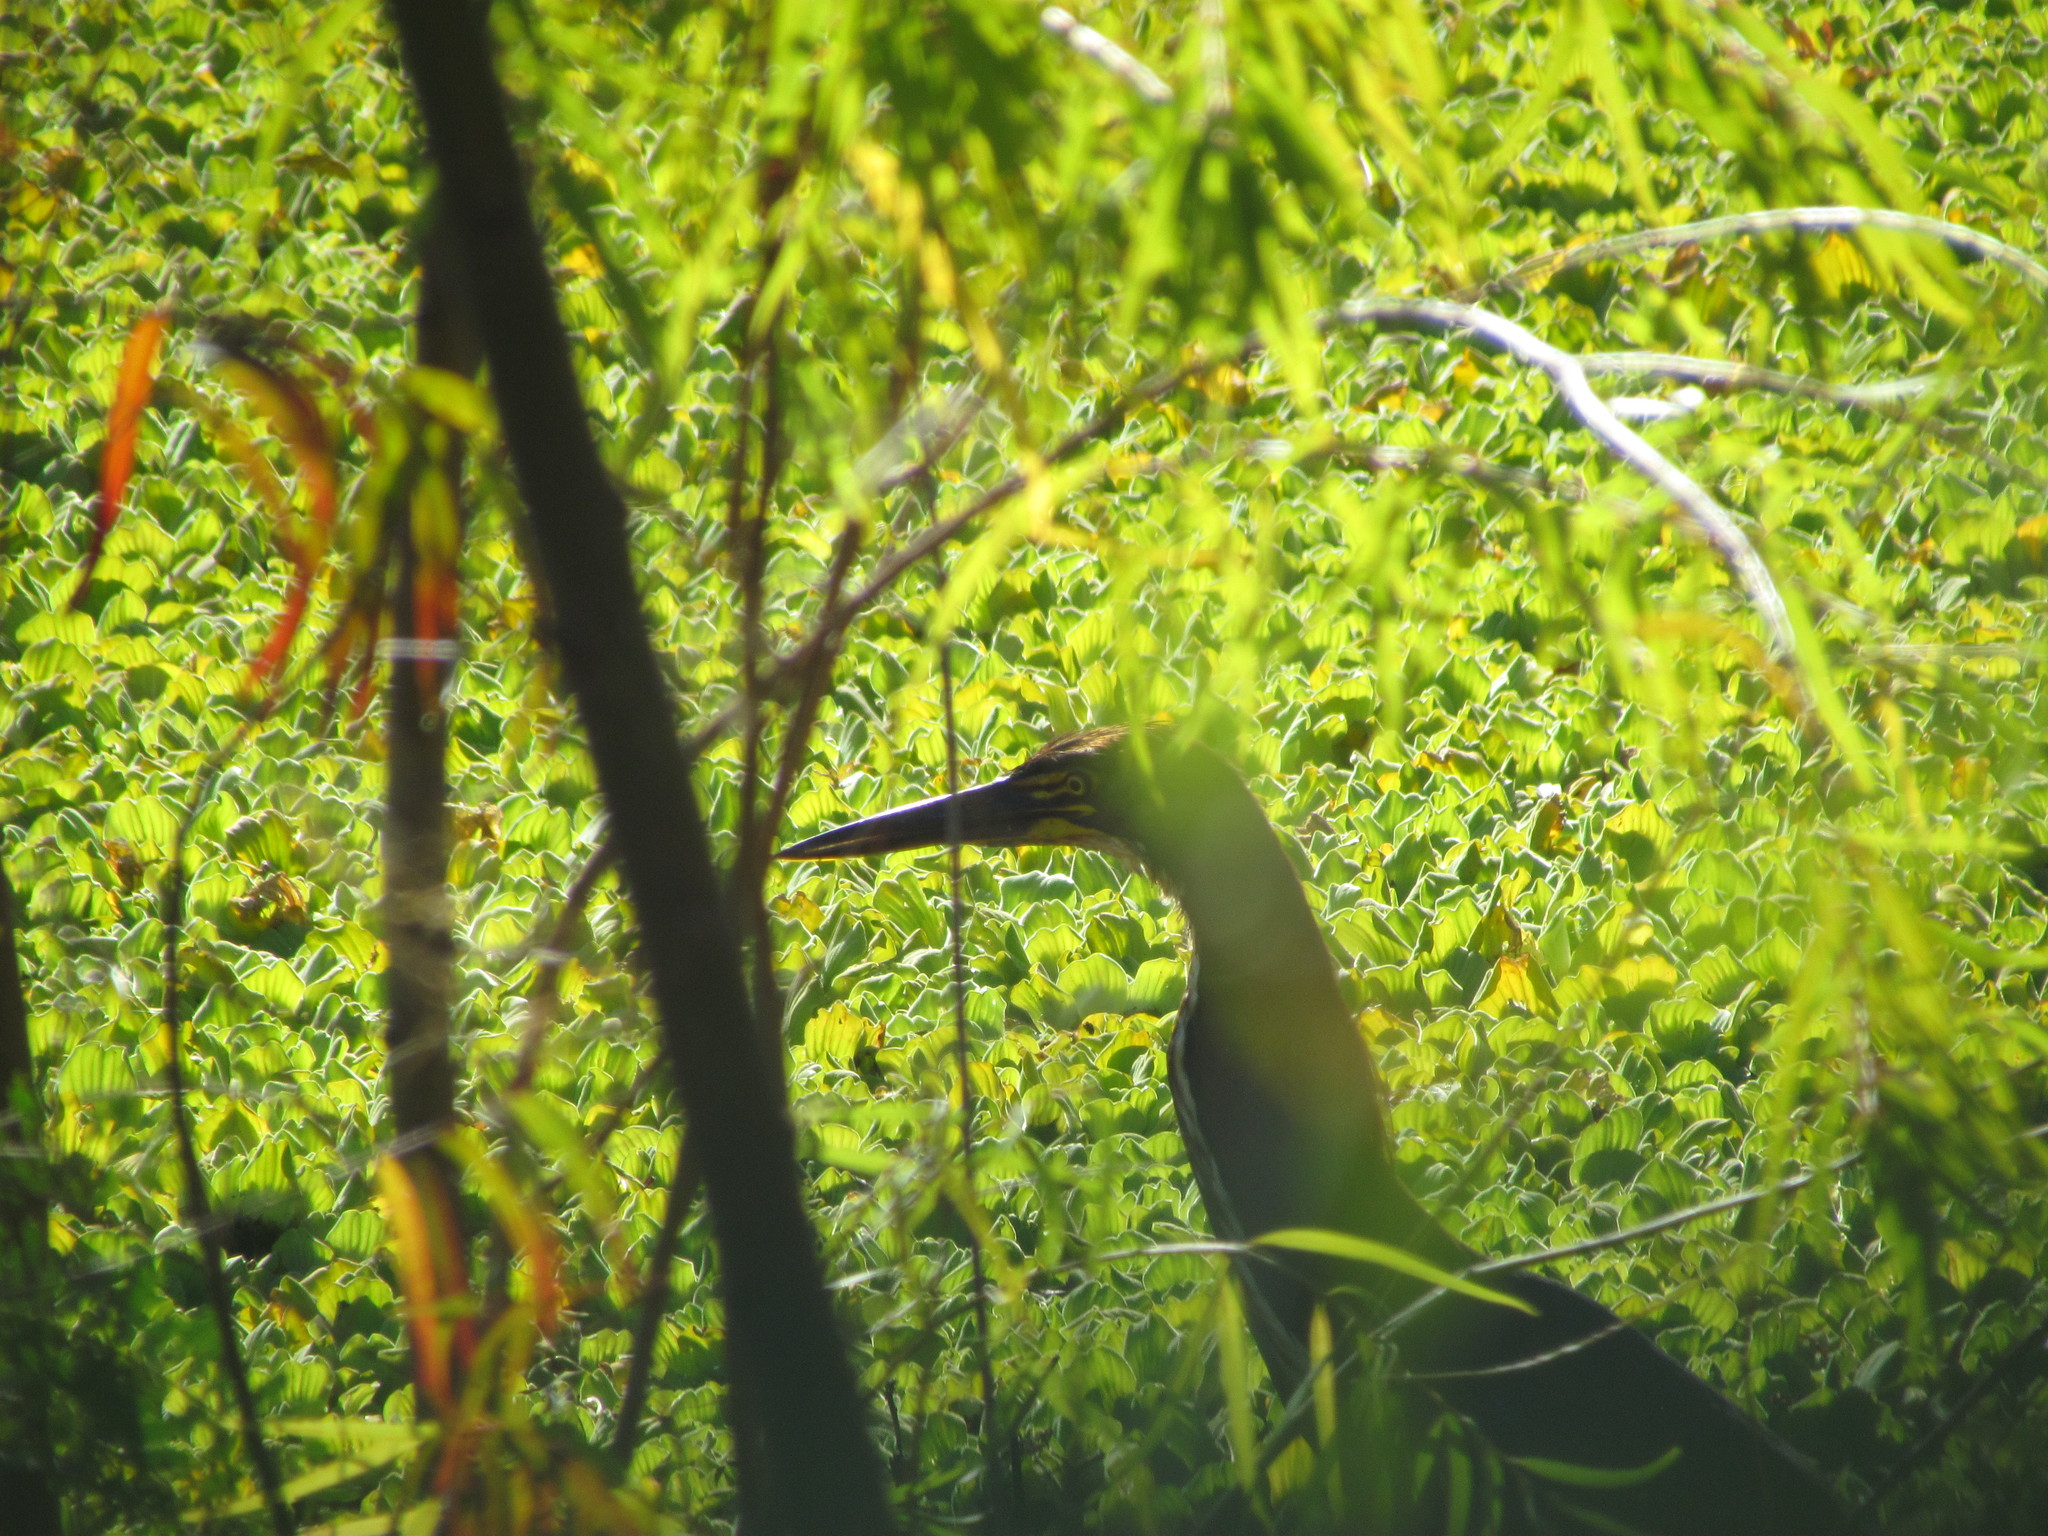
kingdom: Animalia
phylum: Chordata
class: Aves
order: Pelecaniformes
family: Ardeidae
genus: Tigrisoma
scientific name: Tigrisoma lineatum
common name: Rufescent tiger-heron
